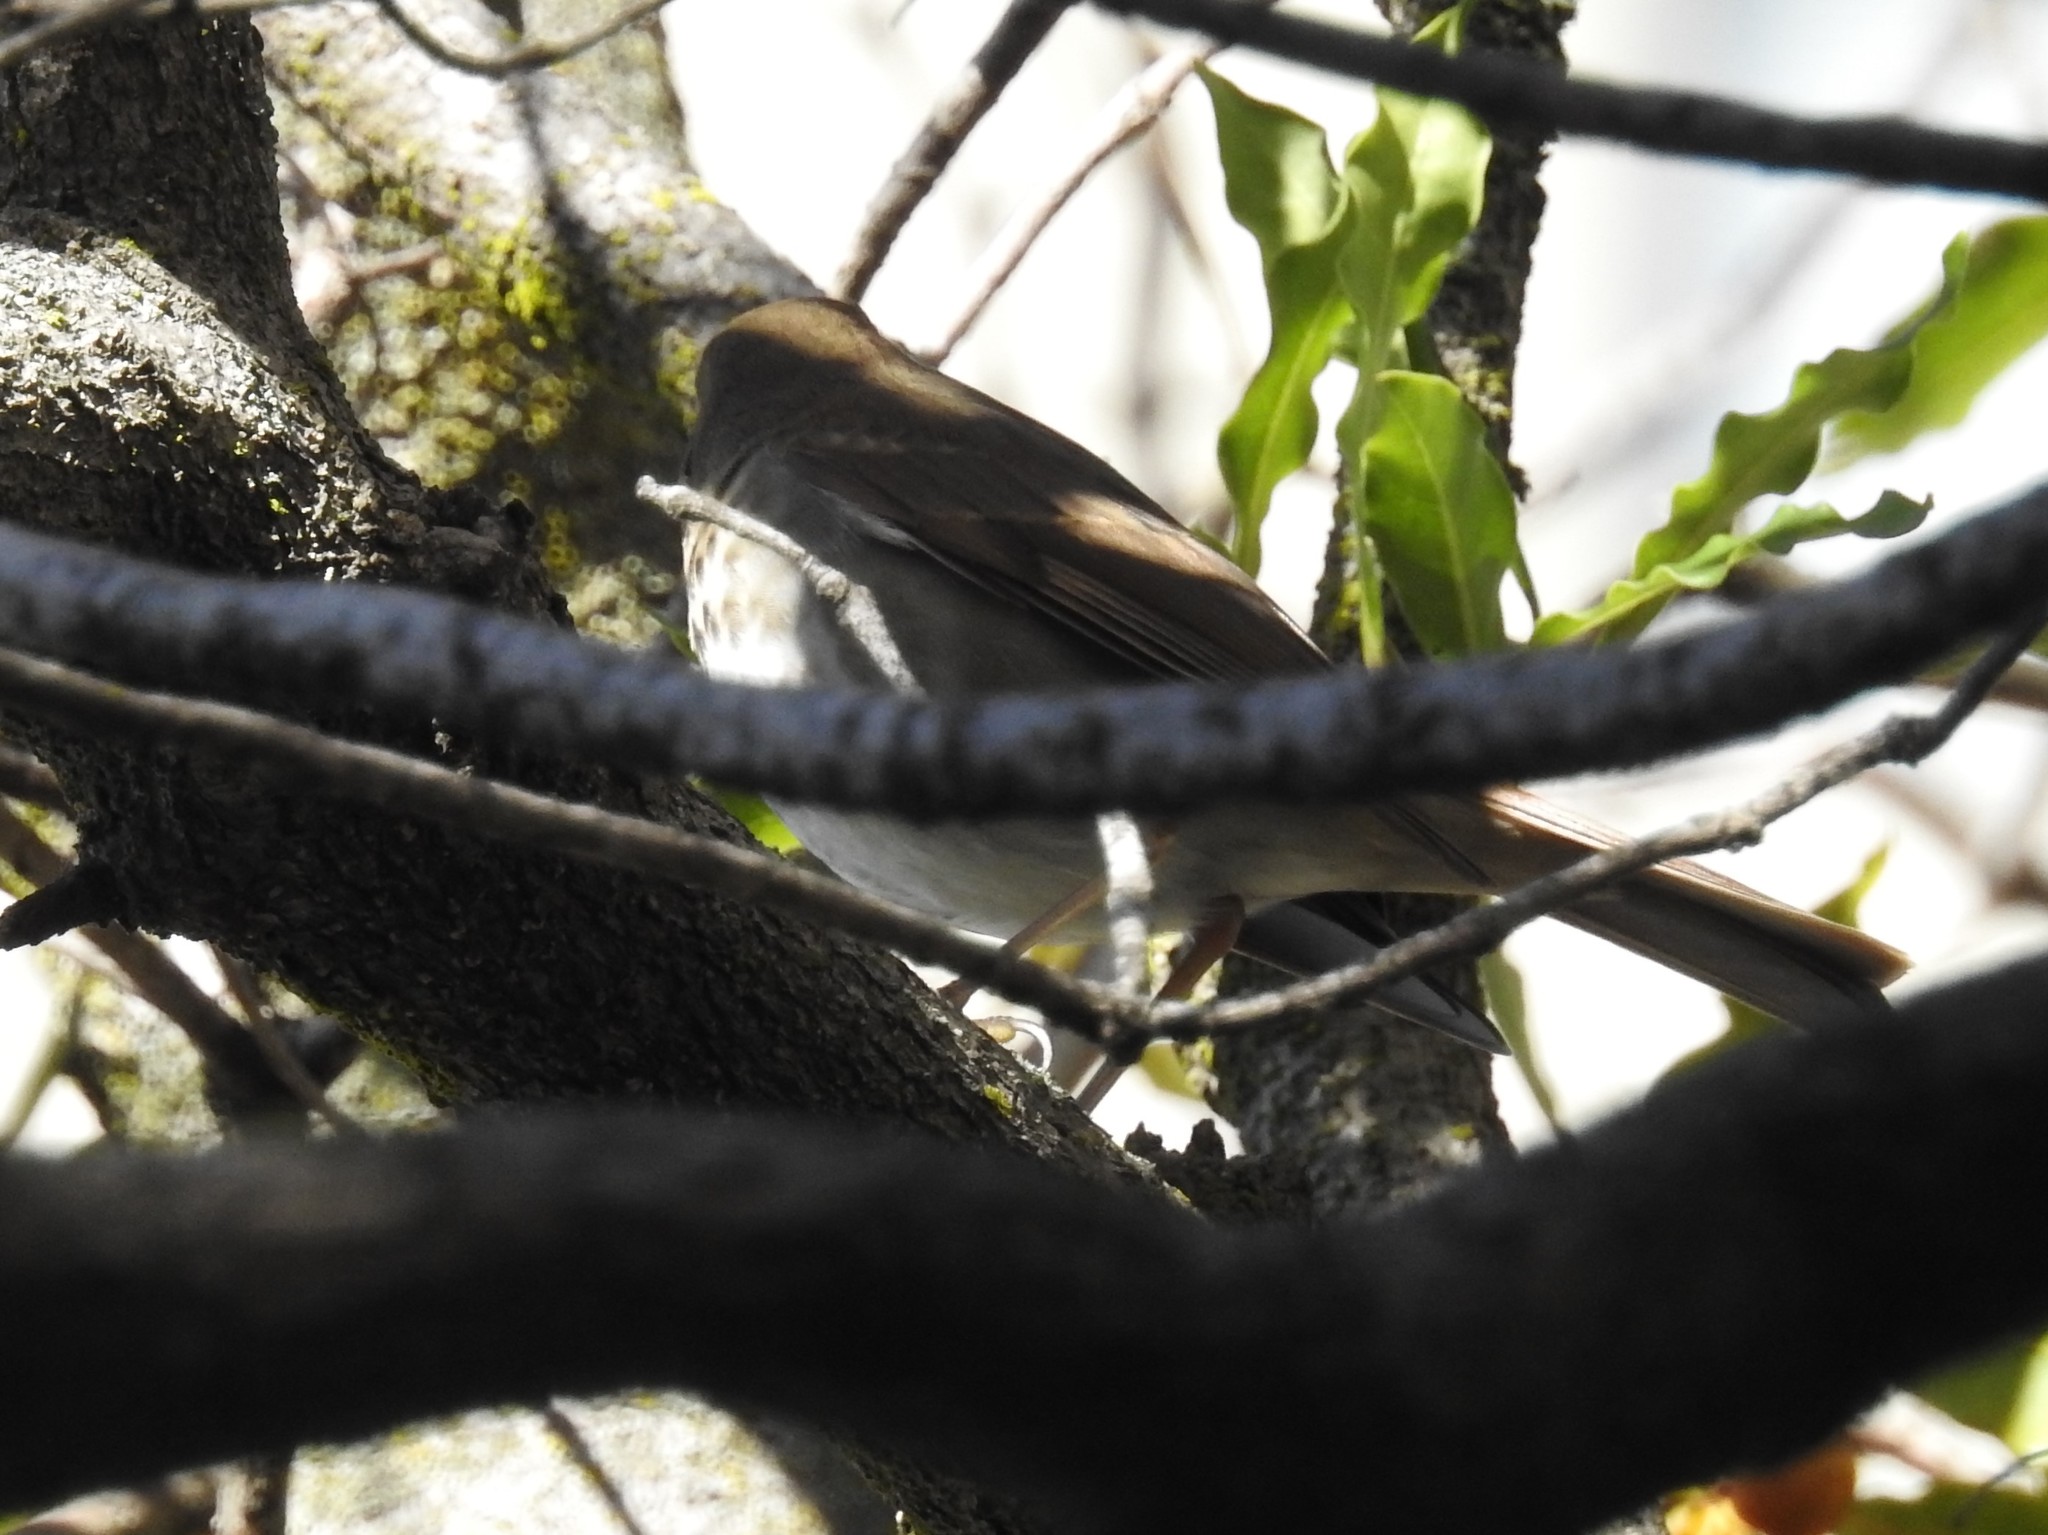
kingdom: Animalia
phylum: Chordata
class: Aves
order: Passeriformes
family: Turdidae
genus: Catharus
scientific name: Catharus guttatus
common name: Hermit thrush
